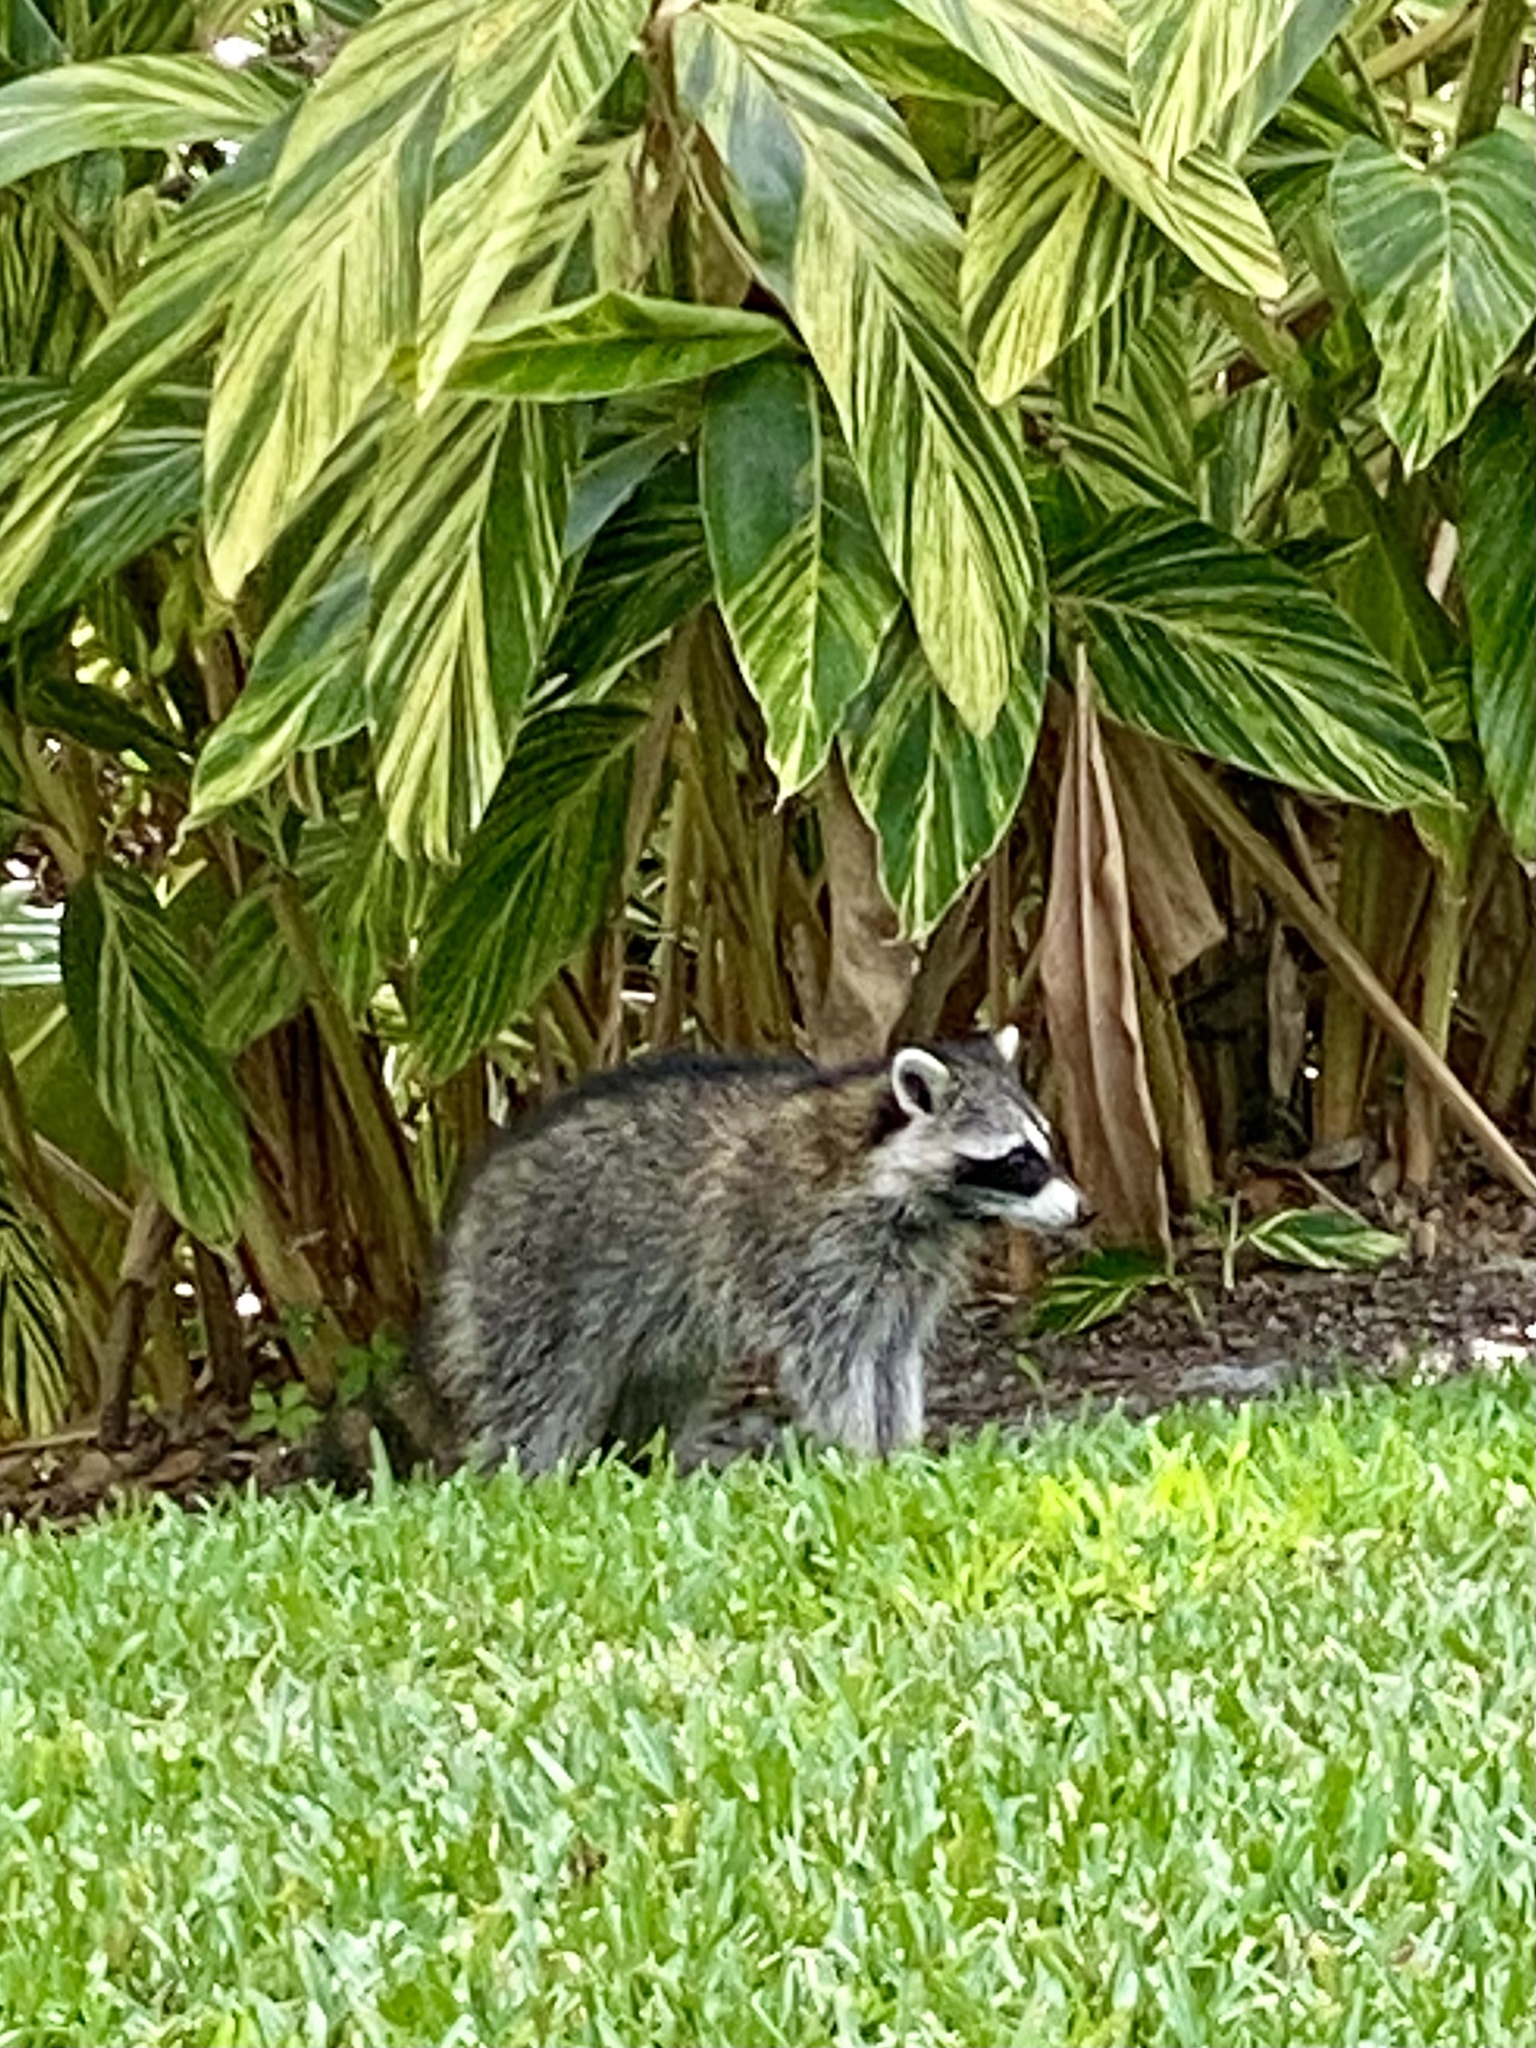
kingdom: Animalia
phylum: Chordata
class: Mammalia
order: Carnivora
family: Procyonidae
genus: Procyon
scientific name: Procyon lotor
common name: Raccoon
